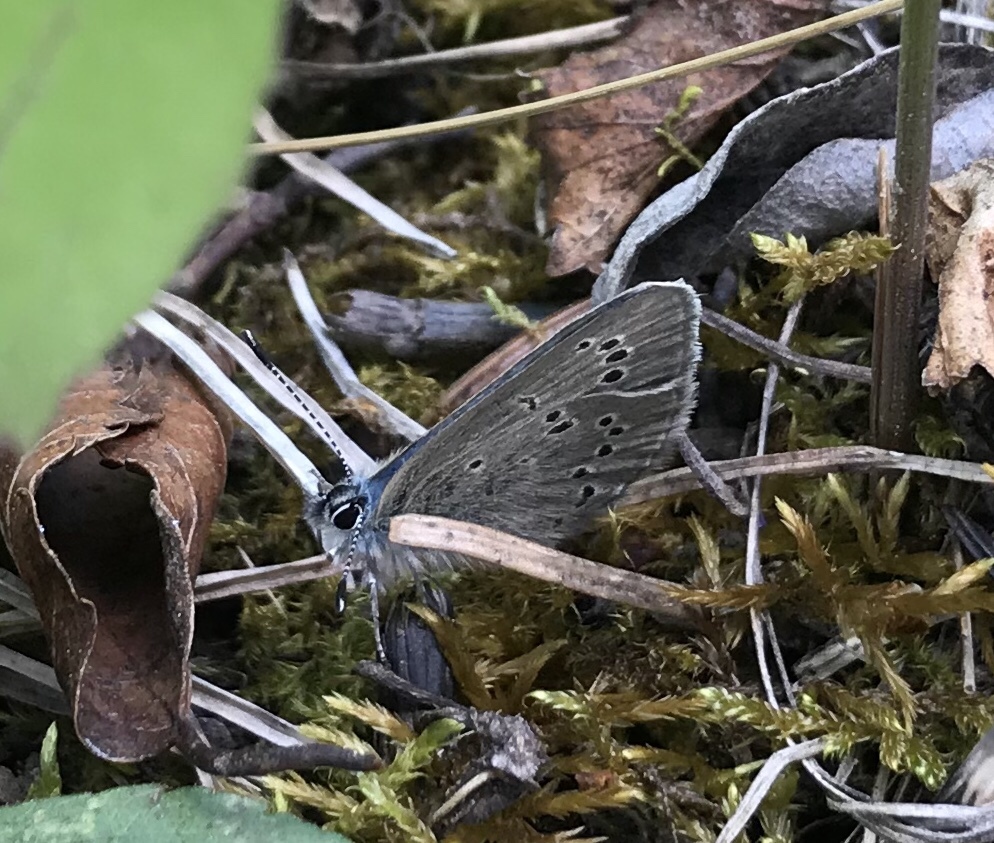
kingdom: Animalia
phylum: Arthropoda
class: Insecta
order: Lepidoptera
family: Lycaenidae
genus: Glaucopsyche
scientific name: Glaucopsyche lygdamus
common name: Silvery blue
